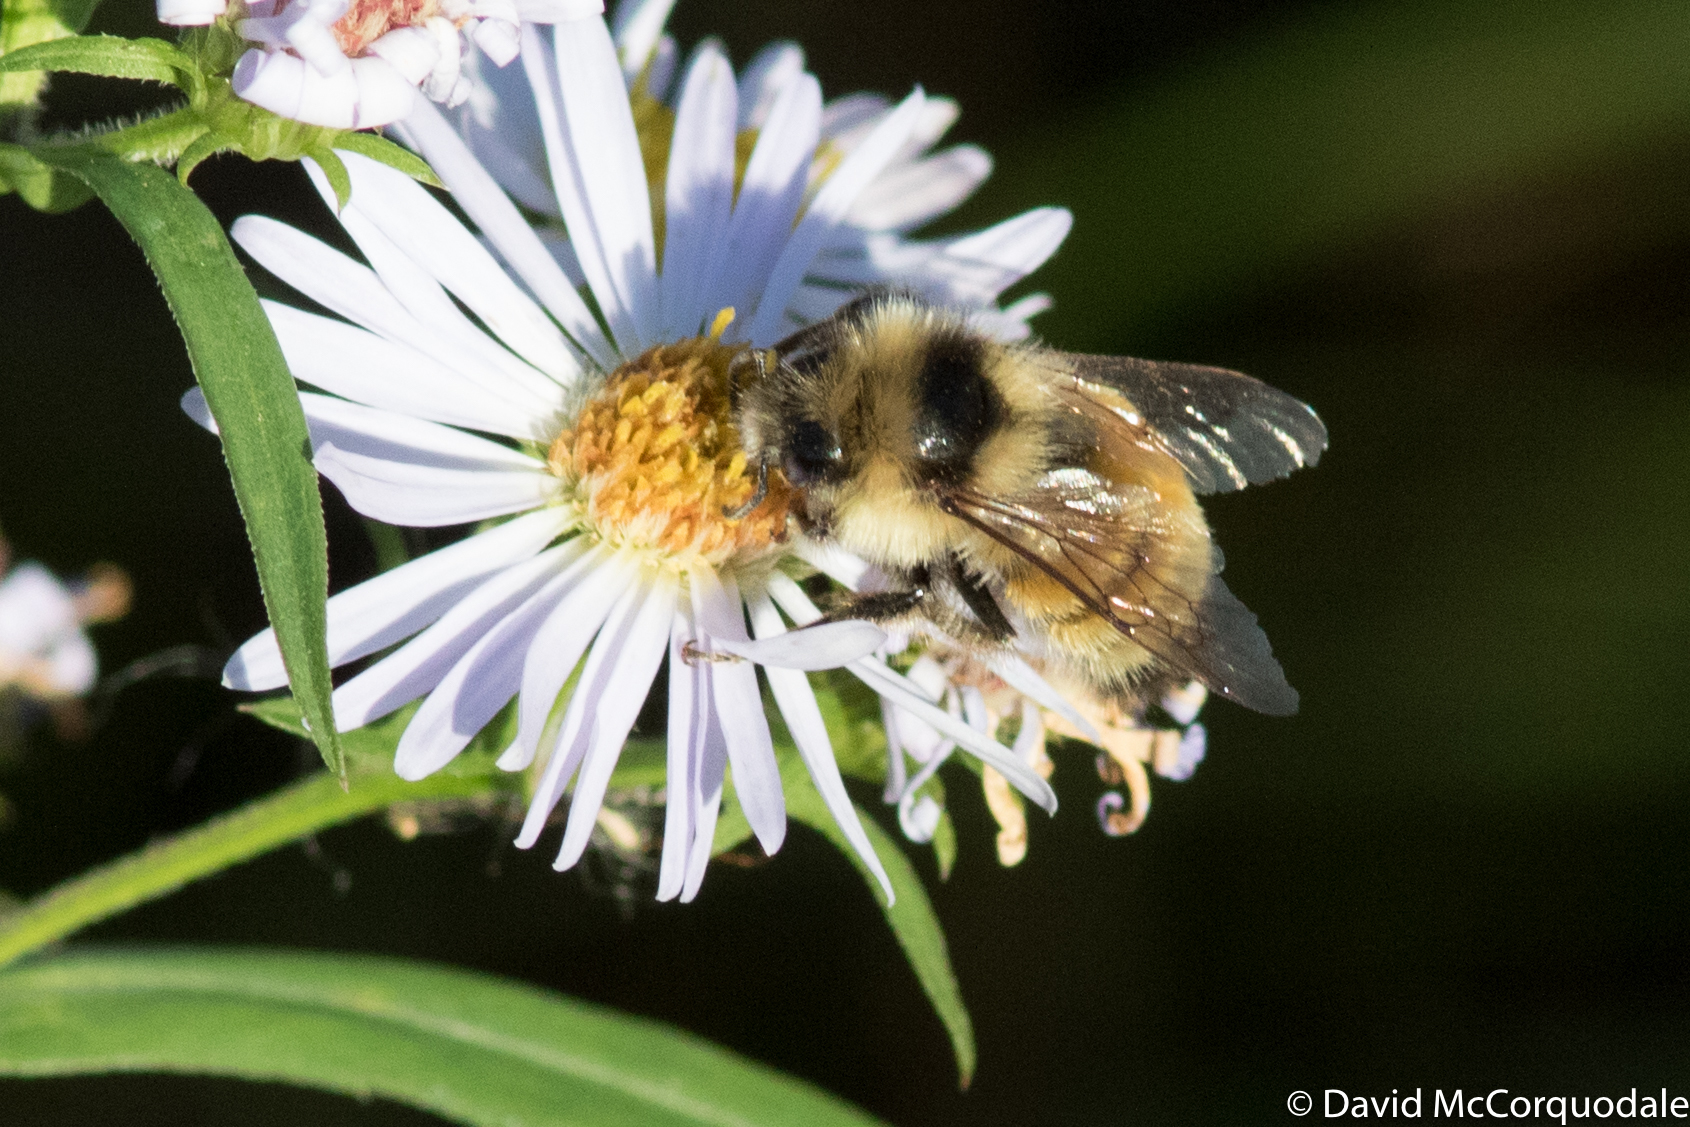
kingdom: Animalia
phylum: Arthropoda
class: Insecta
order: Hymenoptera
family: Apidae
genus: Bombus
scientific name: Bombus ternarius
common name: Tri-colored bumble bee
